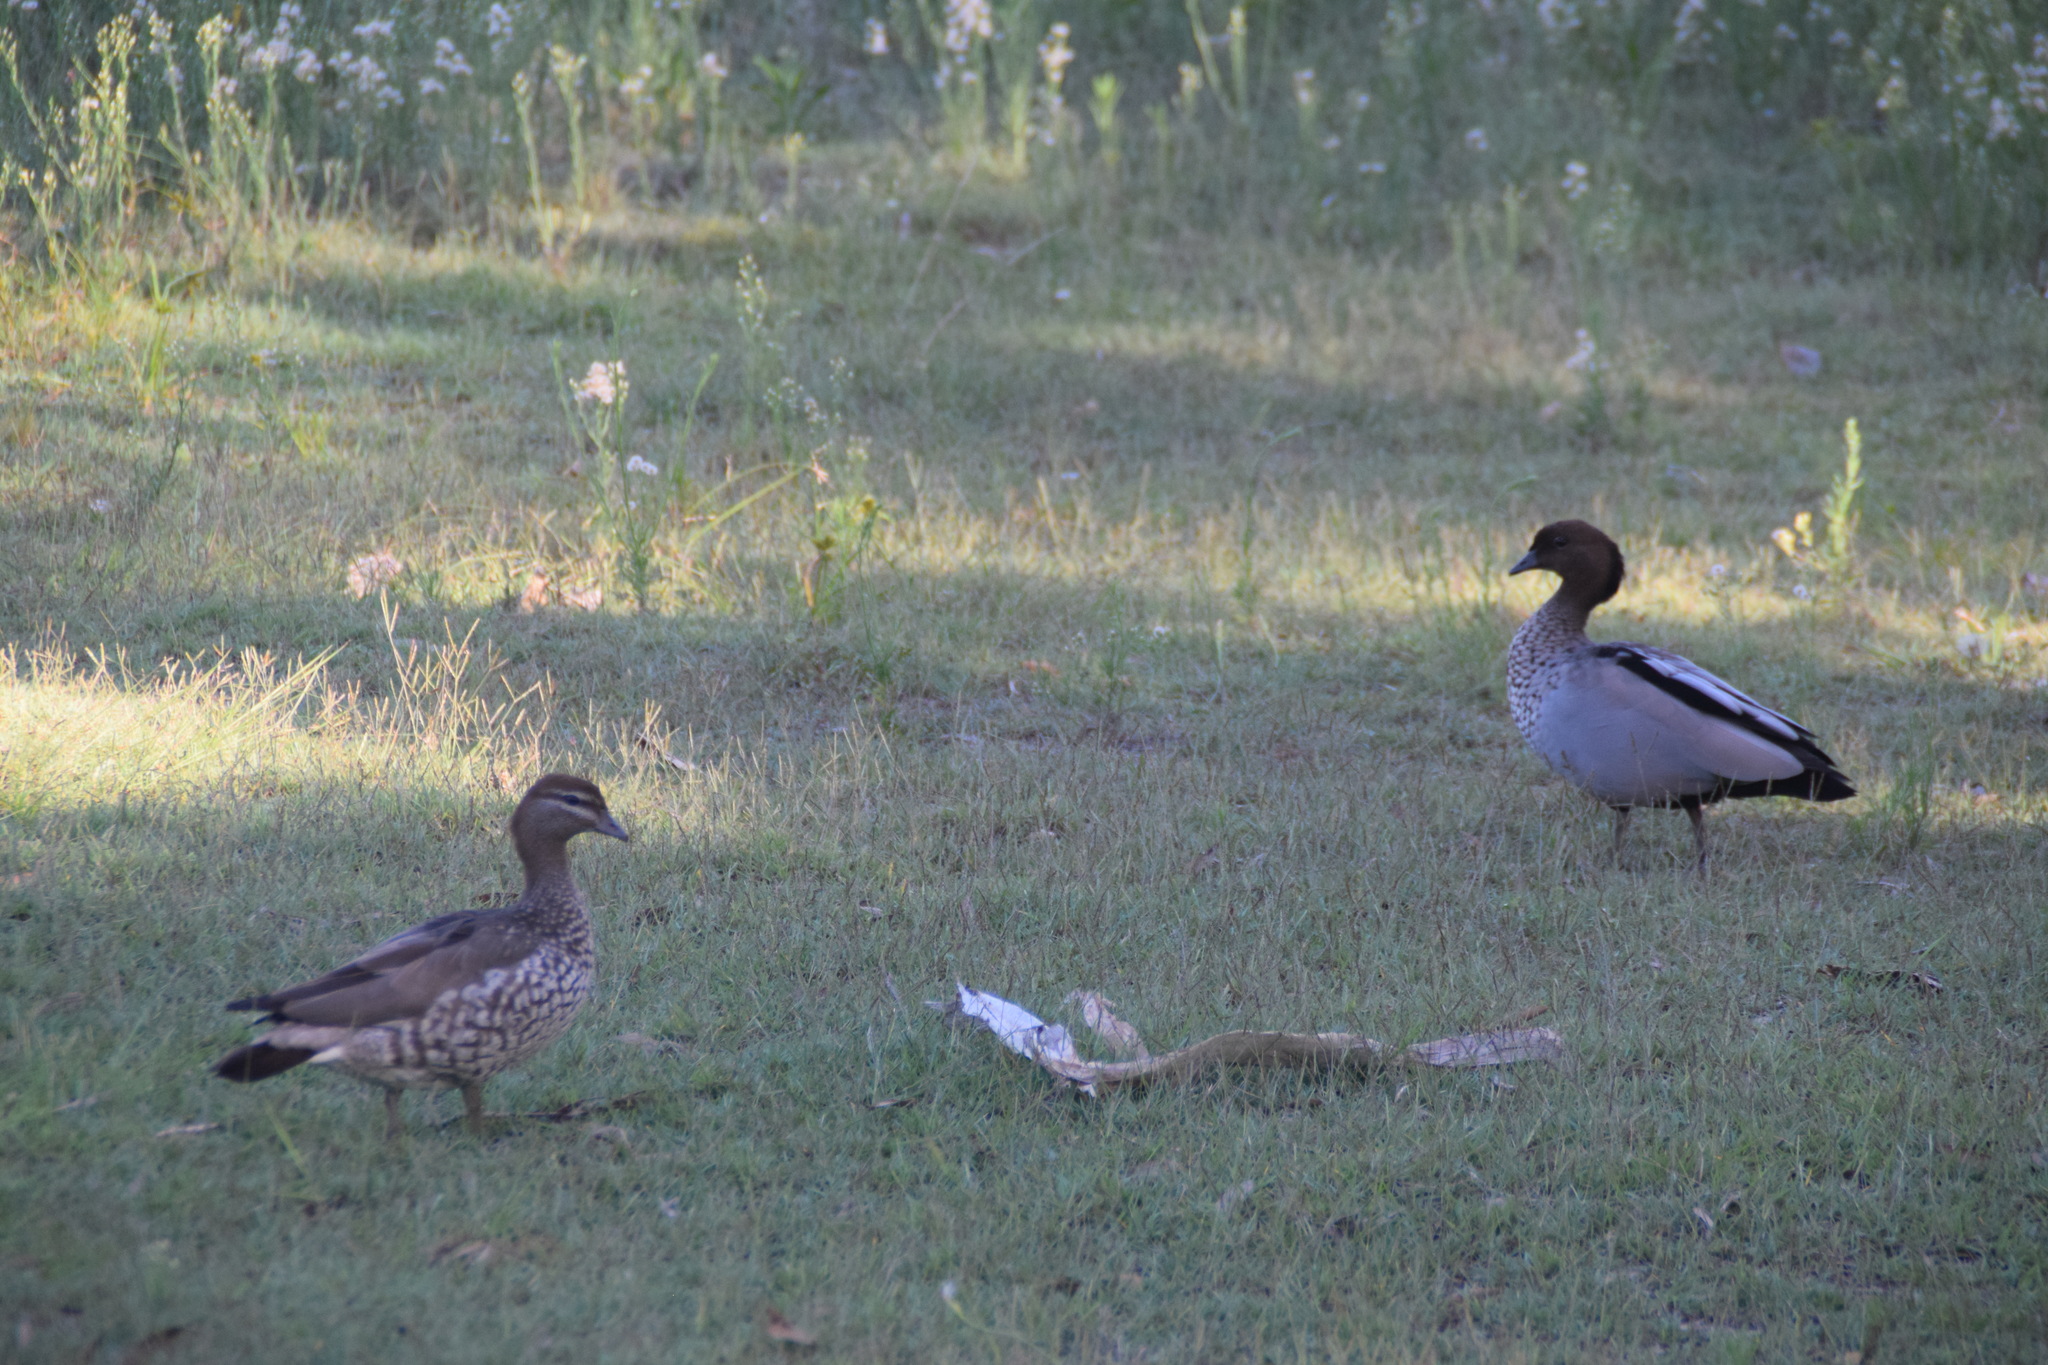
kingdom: Animalia
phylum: Chordata
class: Aves
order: Anseriformes
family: Anatidae
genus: Chenonetta
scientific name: Chenonetta jubata
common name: Maned duck
